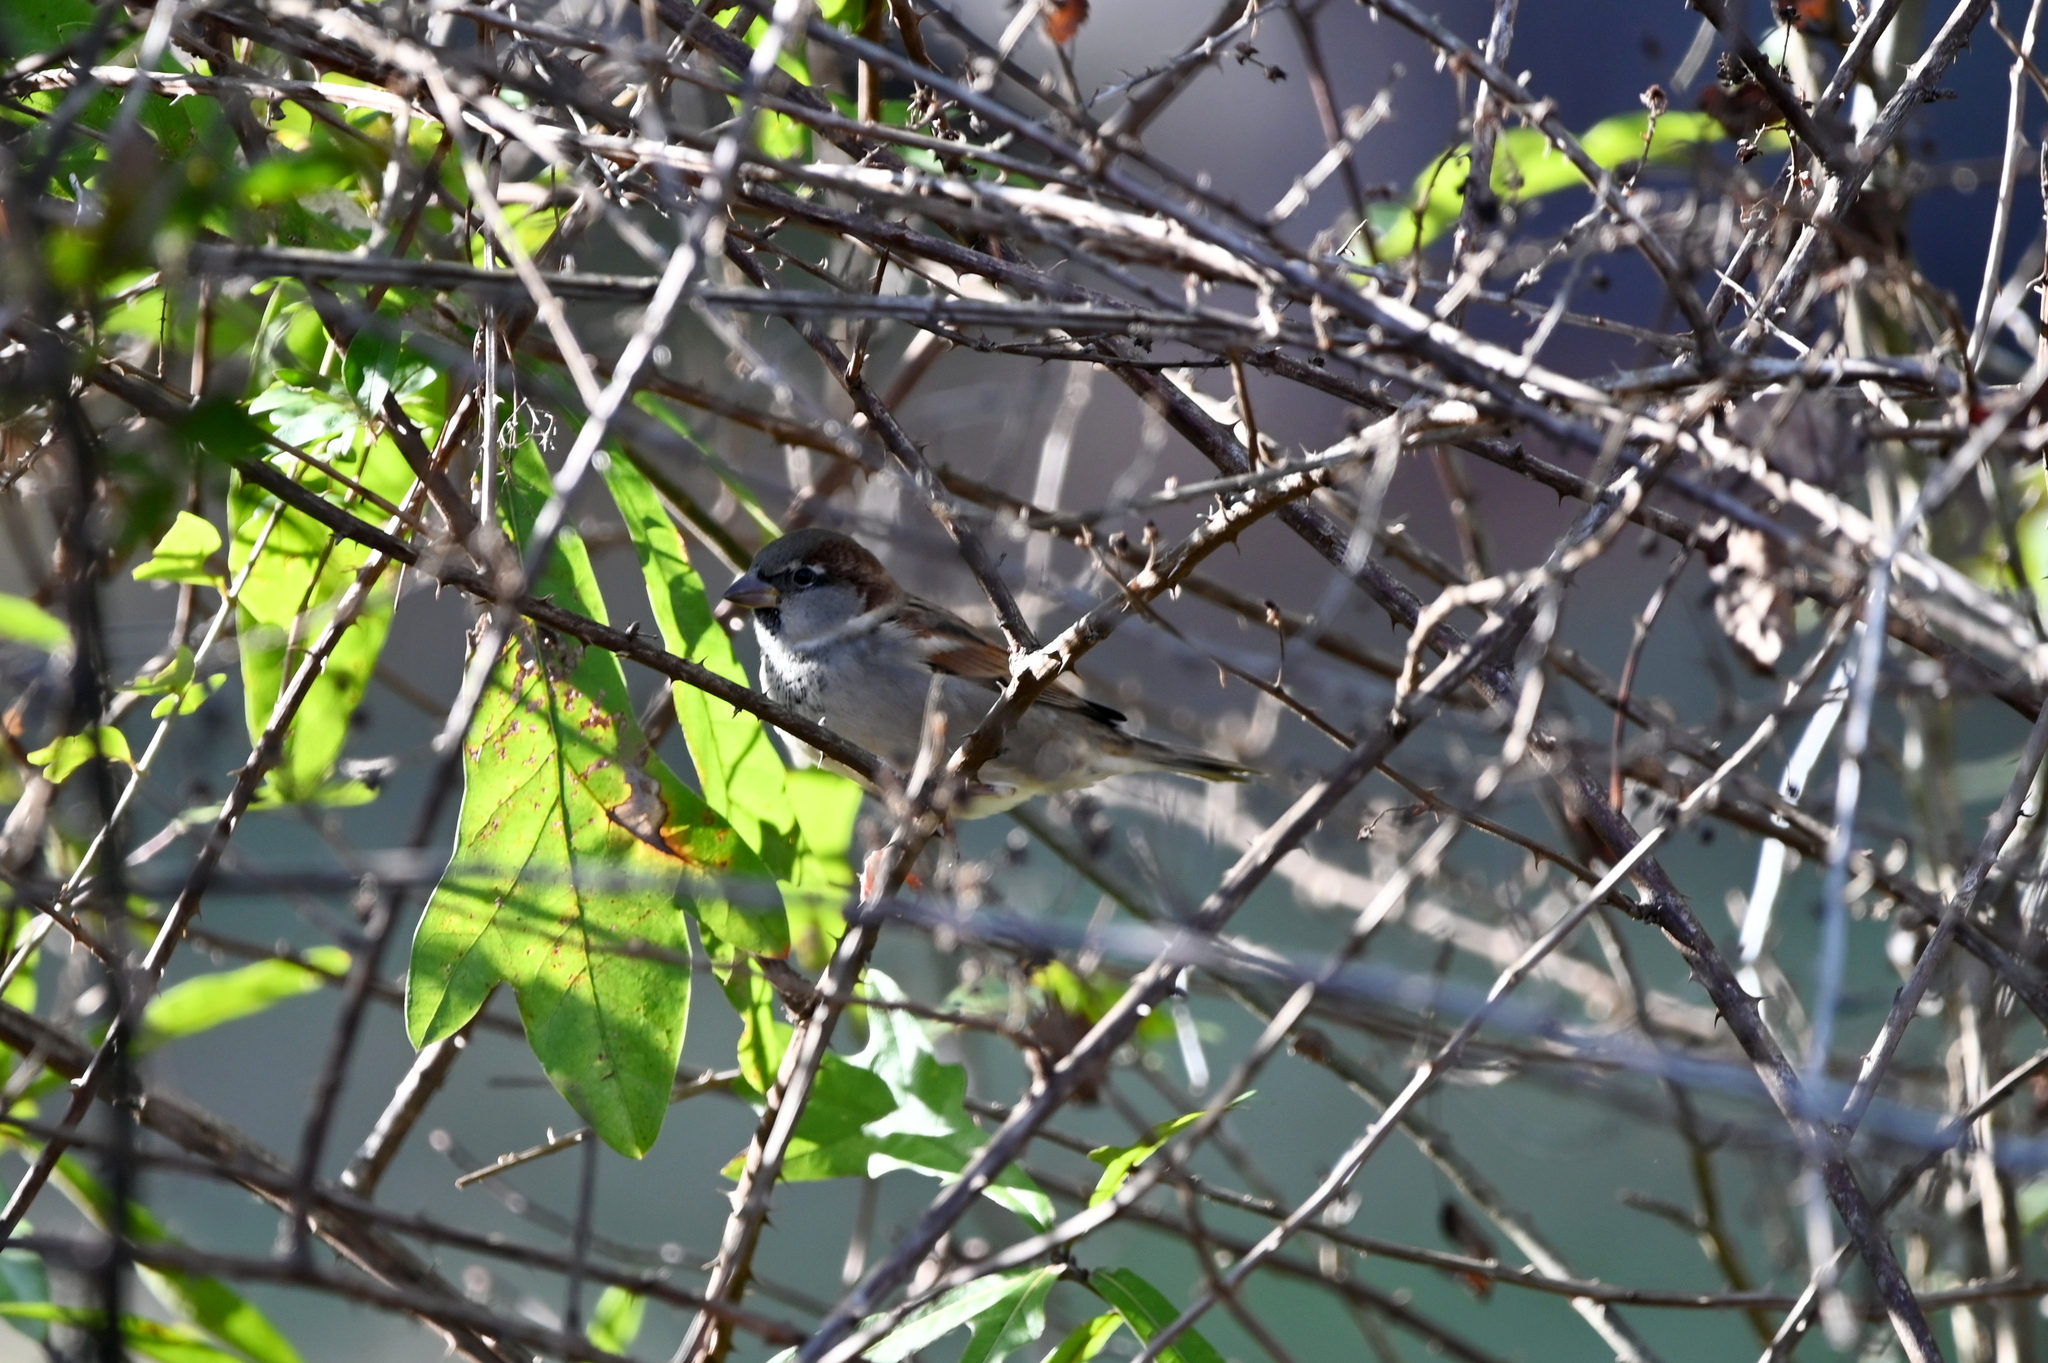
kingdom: Animalia
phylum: Chordata
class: Aves
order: Passeriformes
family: Passeridae
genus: Passer
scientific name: Passer domesticus
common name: House sparrow
